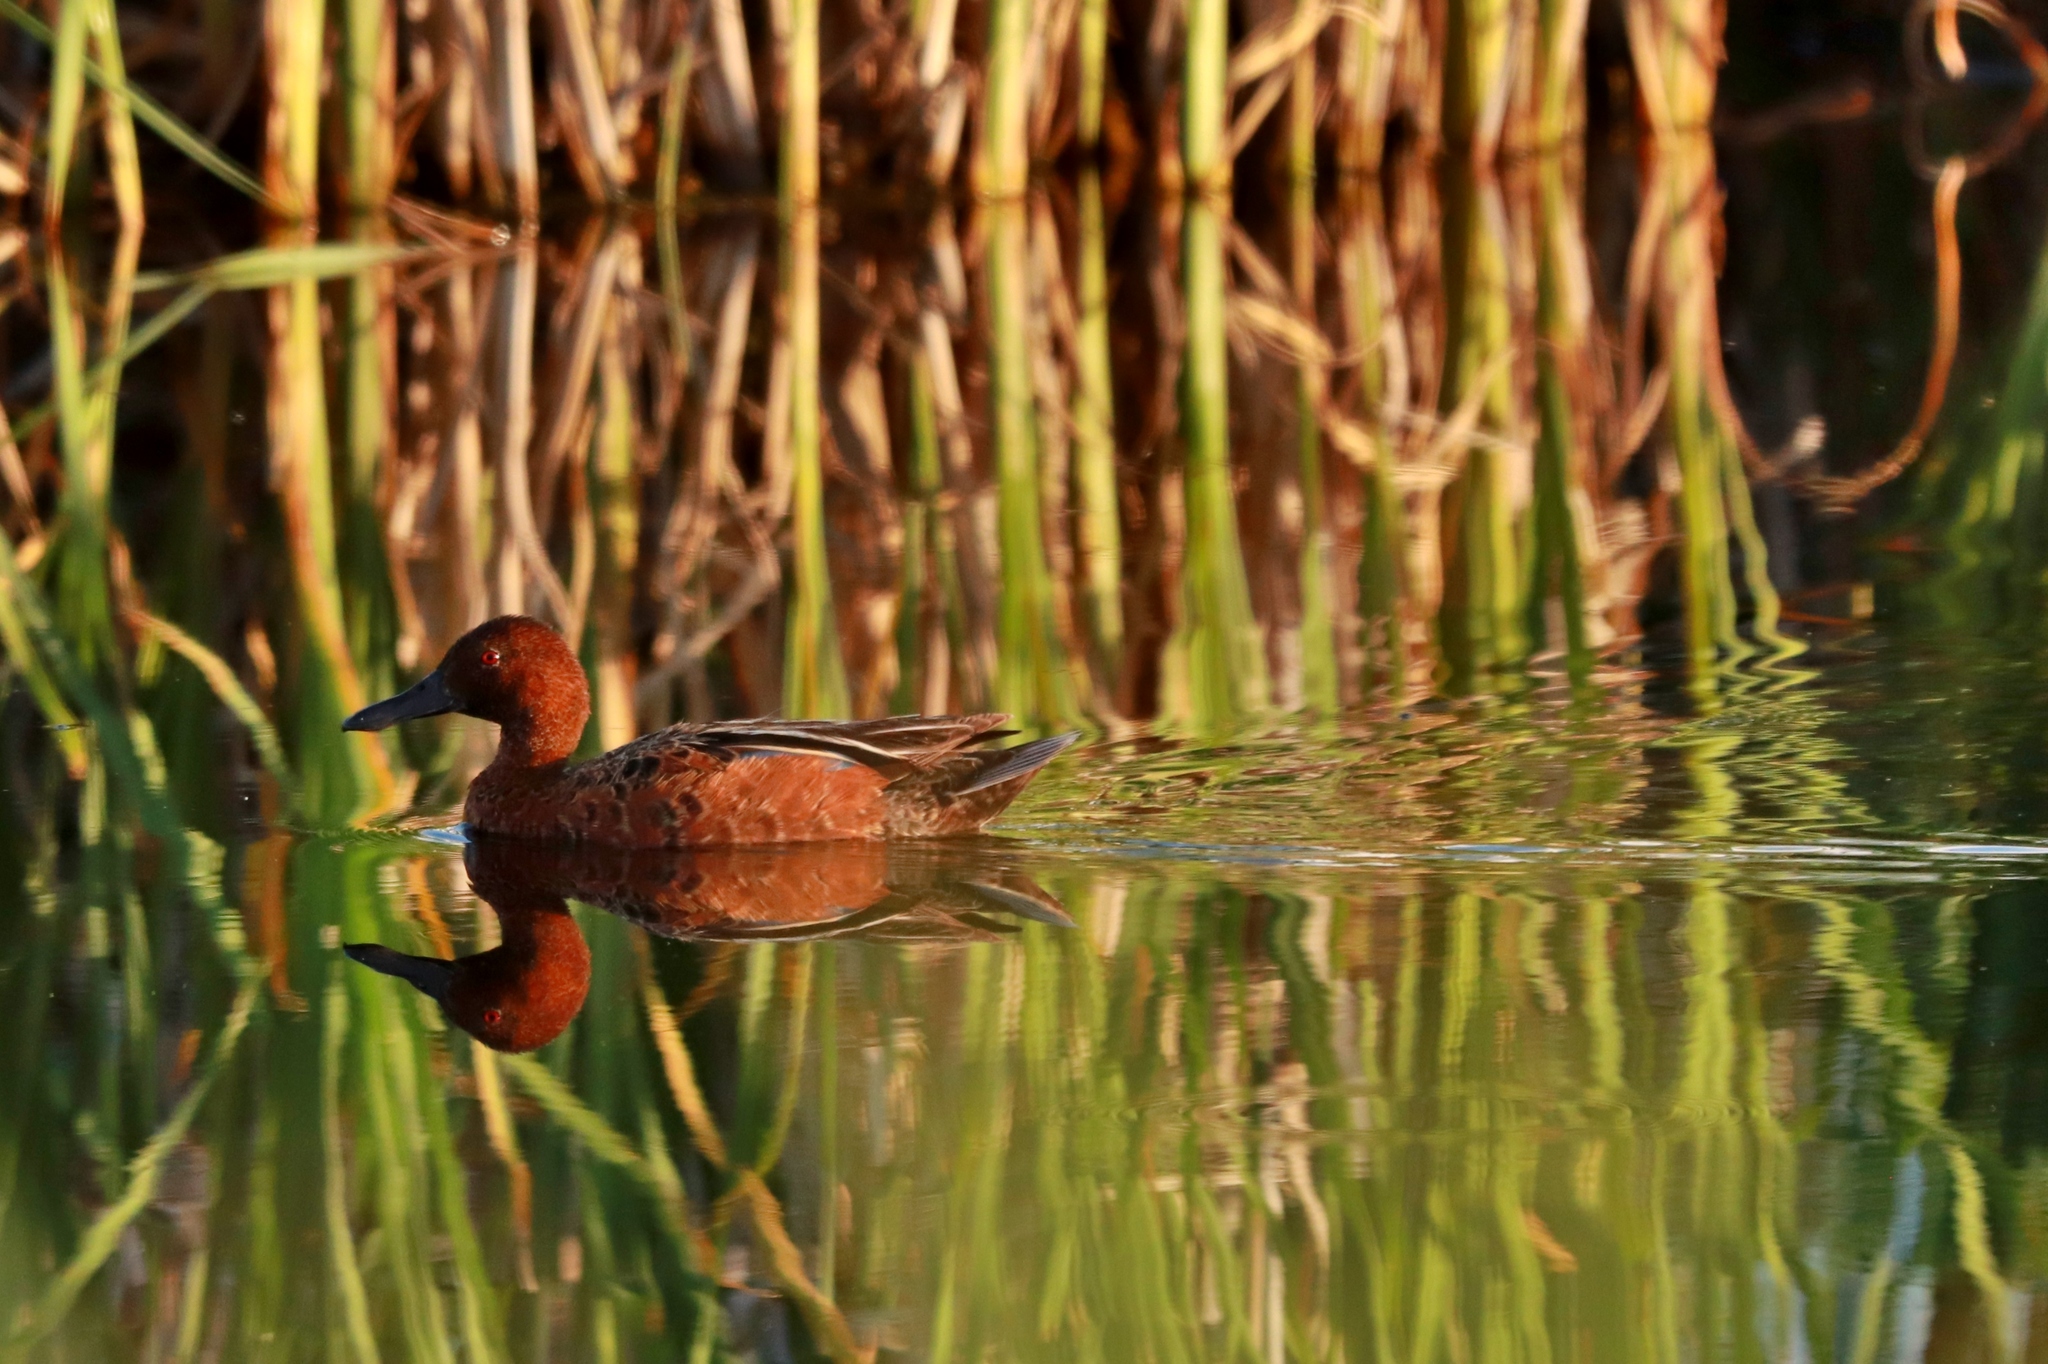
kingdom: Animalia
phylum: Chordata
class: Aves
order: Anseriformes
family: Anatidae
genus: Spatula
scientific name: Spatula cyanoptera
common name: Cinnamon teal
